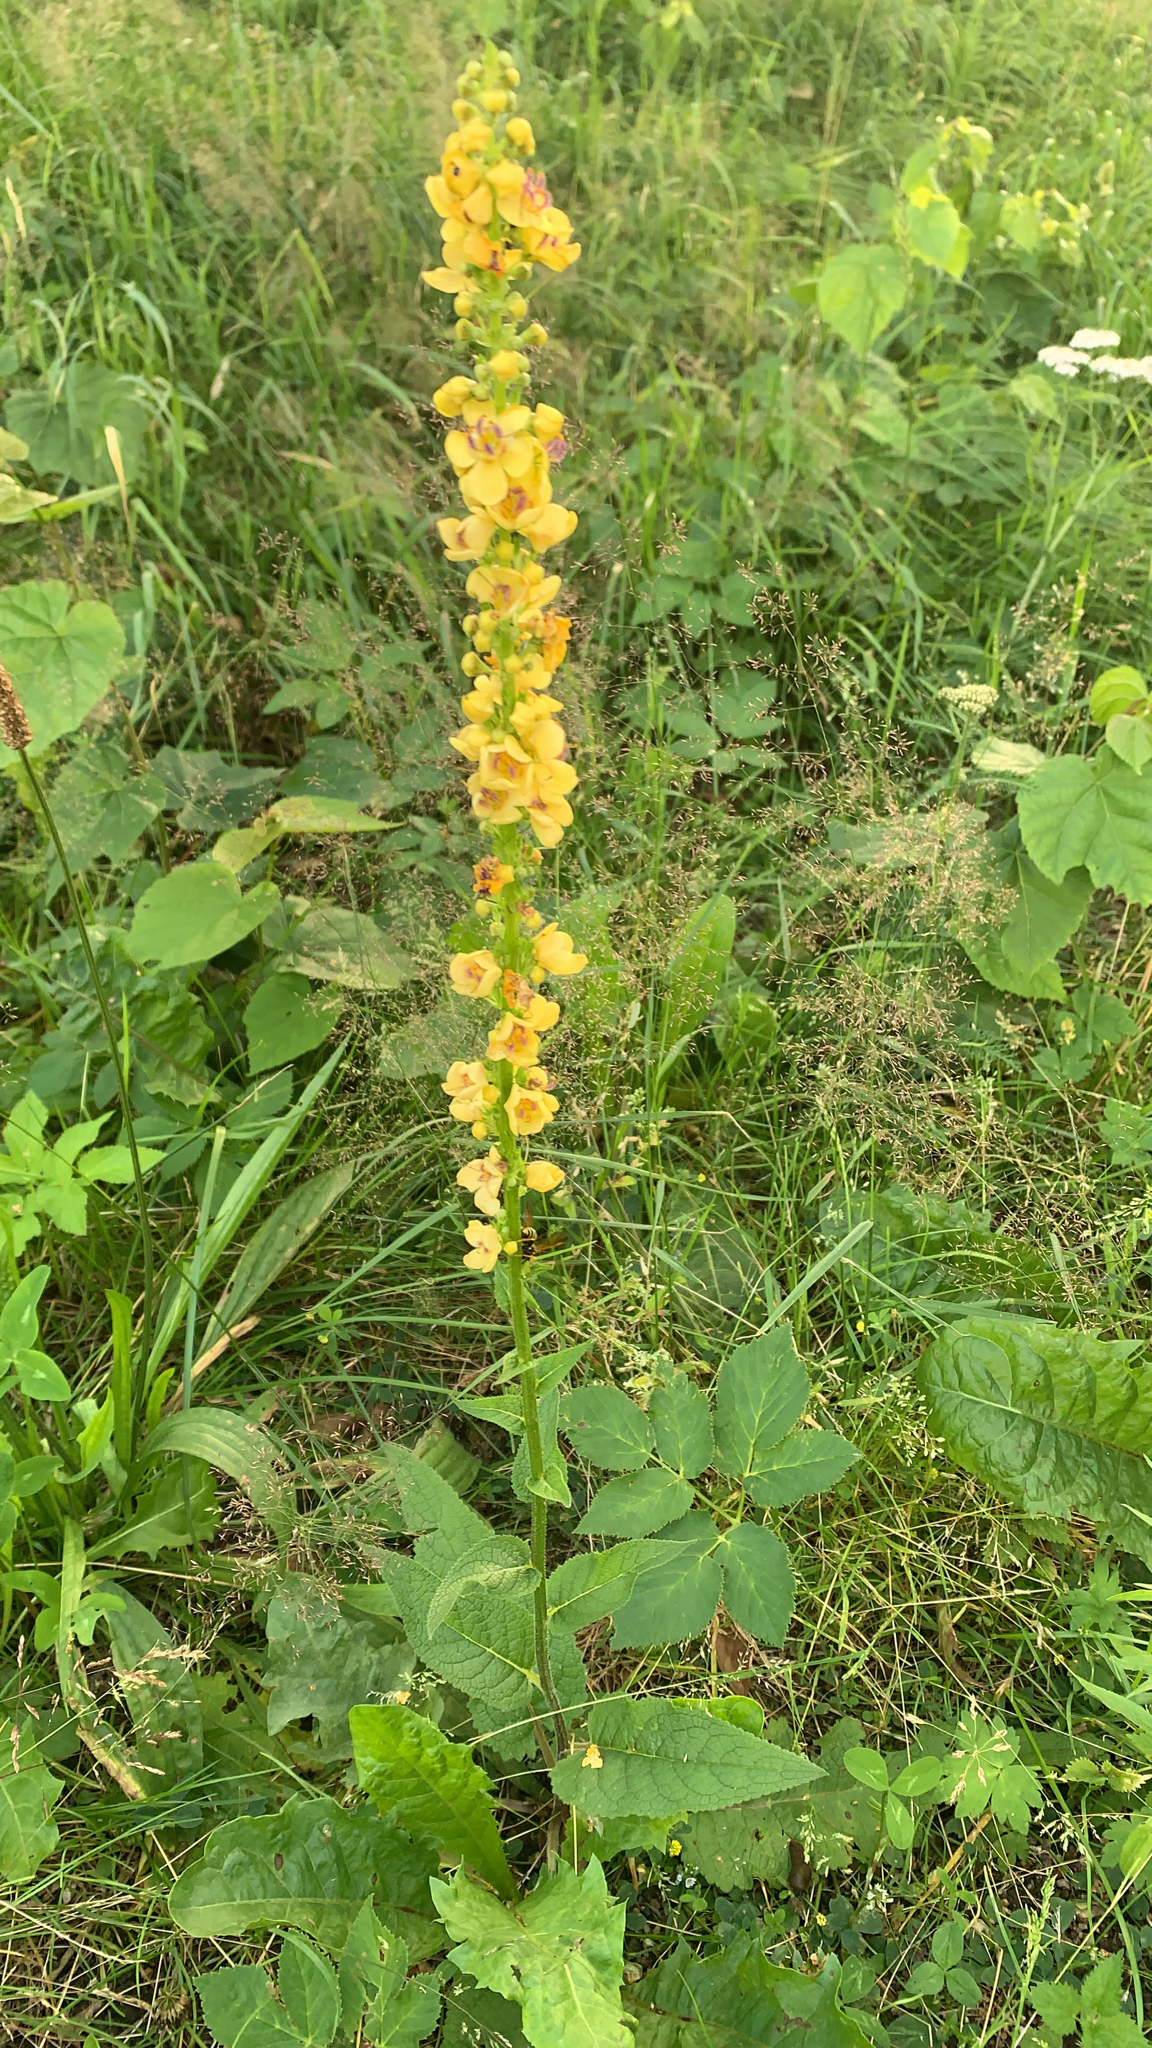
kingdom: Plantae
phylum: Tracheophyta
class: Magnoliopsida
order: Lamiales
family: Scrophulariaceae
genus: Verbascum
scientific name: Verbascum nigrum
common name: Dark mullein
